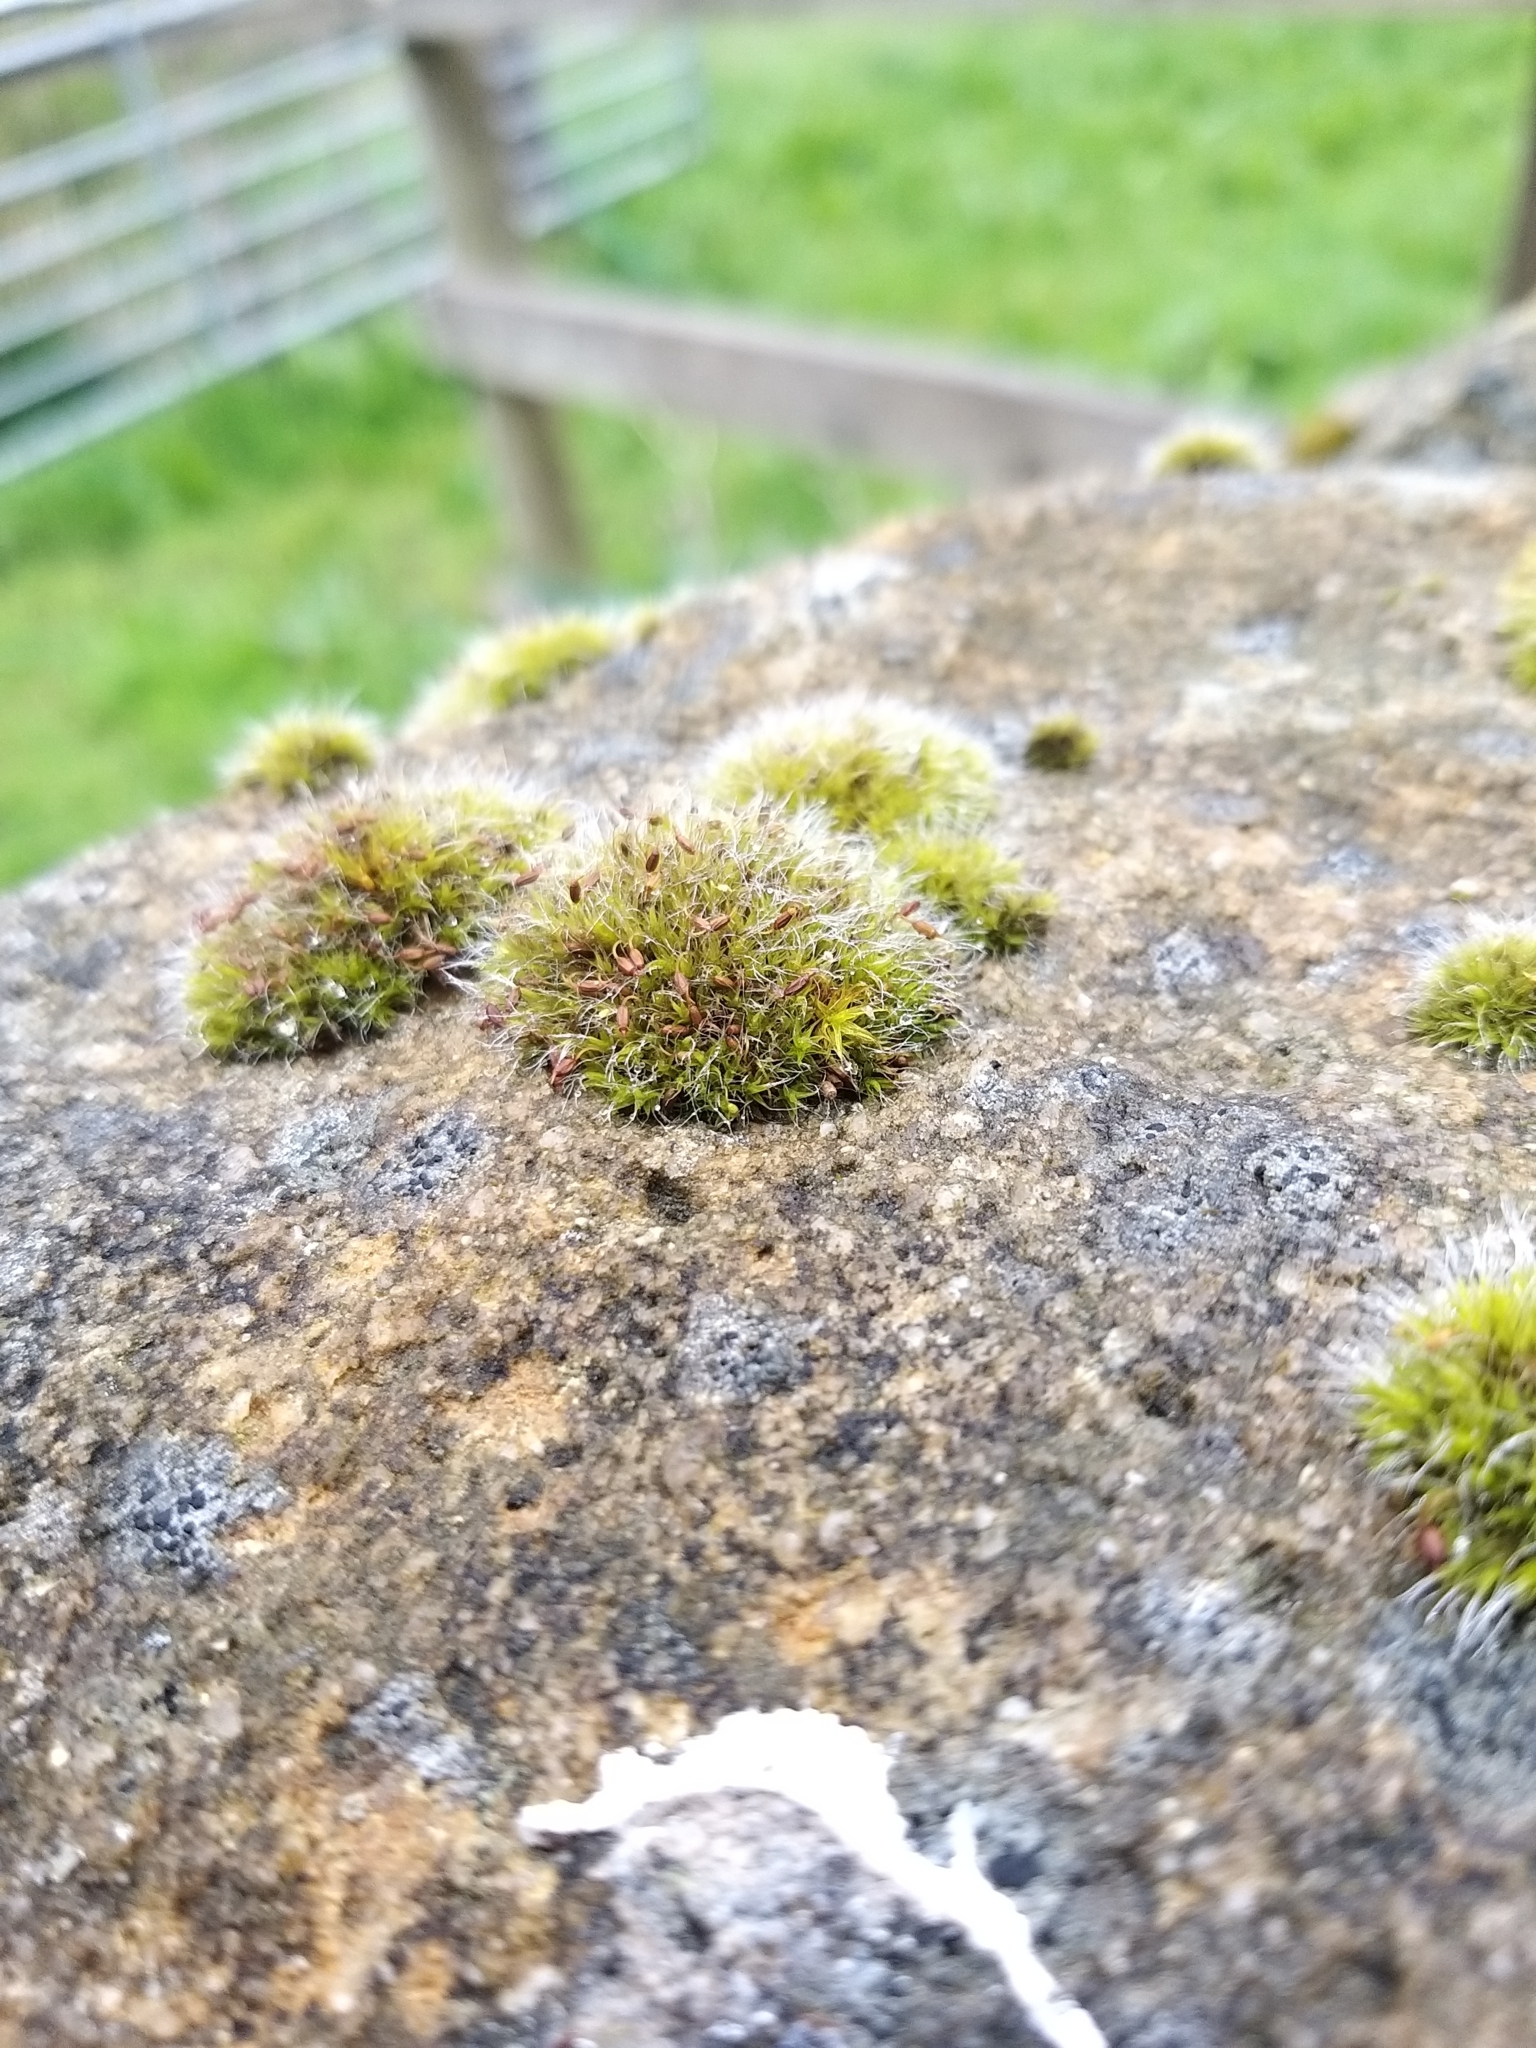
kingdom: Plantae
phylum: Bryophyta
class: Bryopsida
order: Grimmiales
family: Grimmiaceae
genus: Grimmia
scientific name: Grimmia pulvinata
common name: Grey-cushioned grimmia
